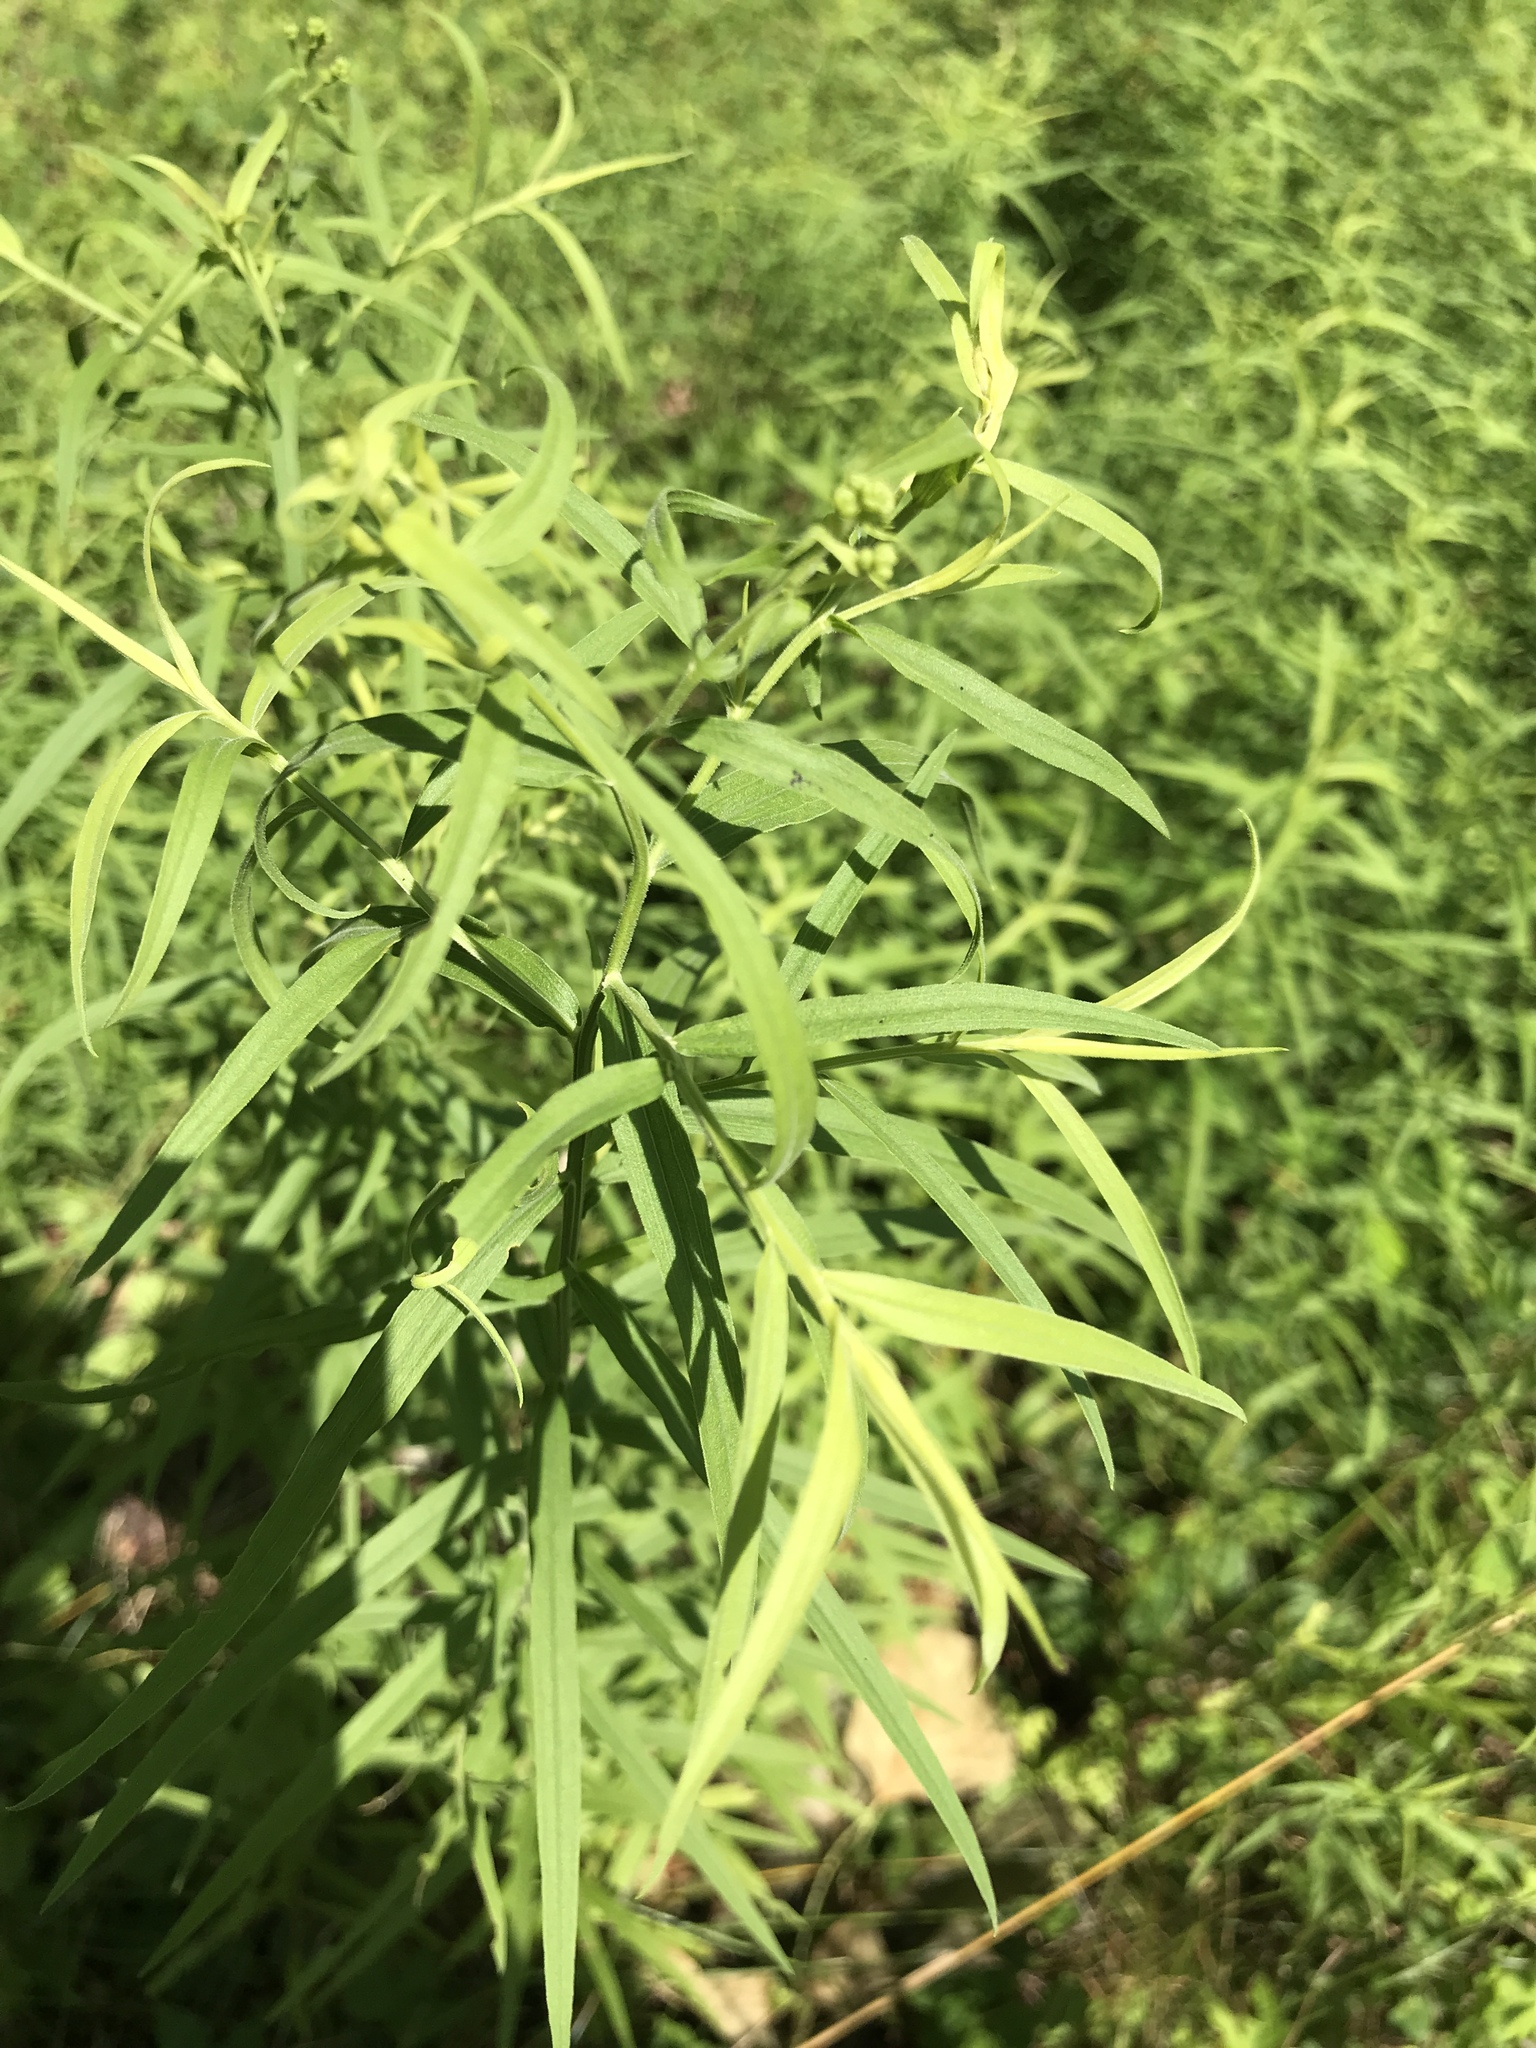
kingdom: Plantae
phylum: Tracheophyta
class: Magnoliopsida
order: Asterales
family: Asteraceae
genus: Euthamia
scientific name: Euthamia graminifolia
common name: Common goldentop
